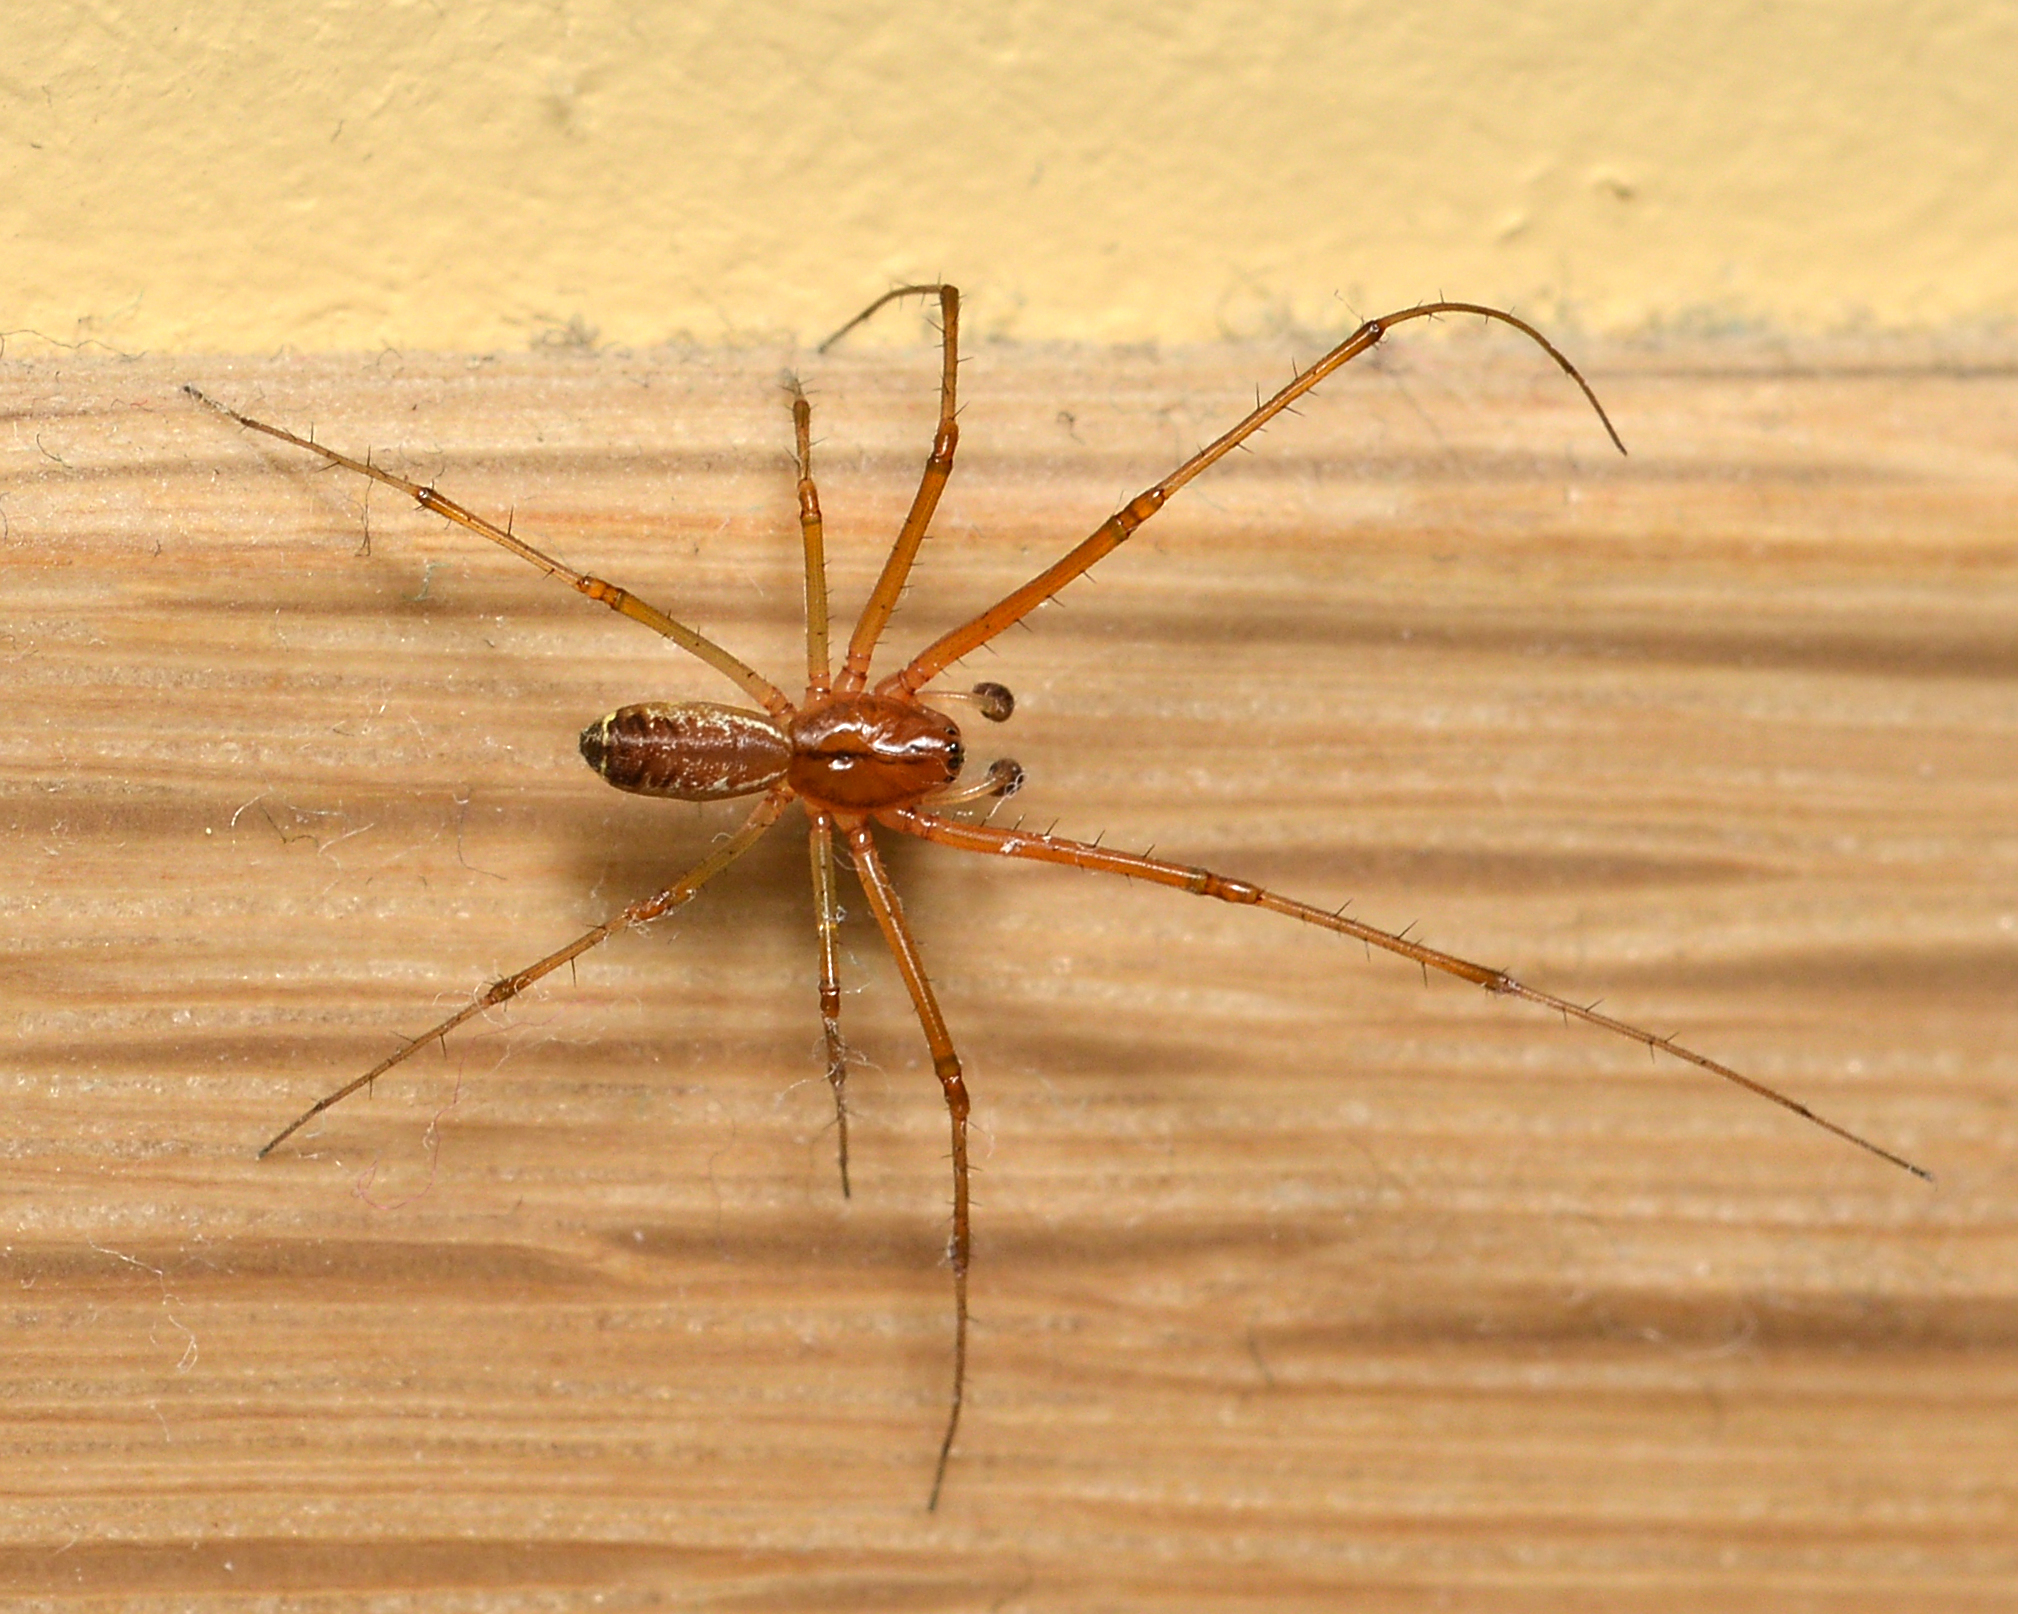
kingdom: Animalia
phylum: Arthropoda
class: Arachnida
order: Araneae
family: Linyphiidae
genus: Linyphia
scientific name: Linyphia triangularis
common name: Money spider
